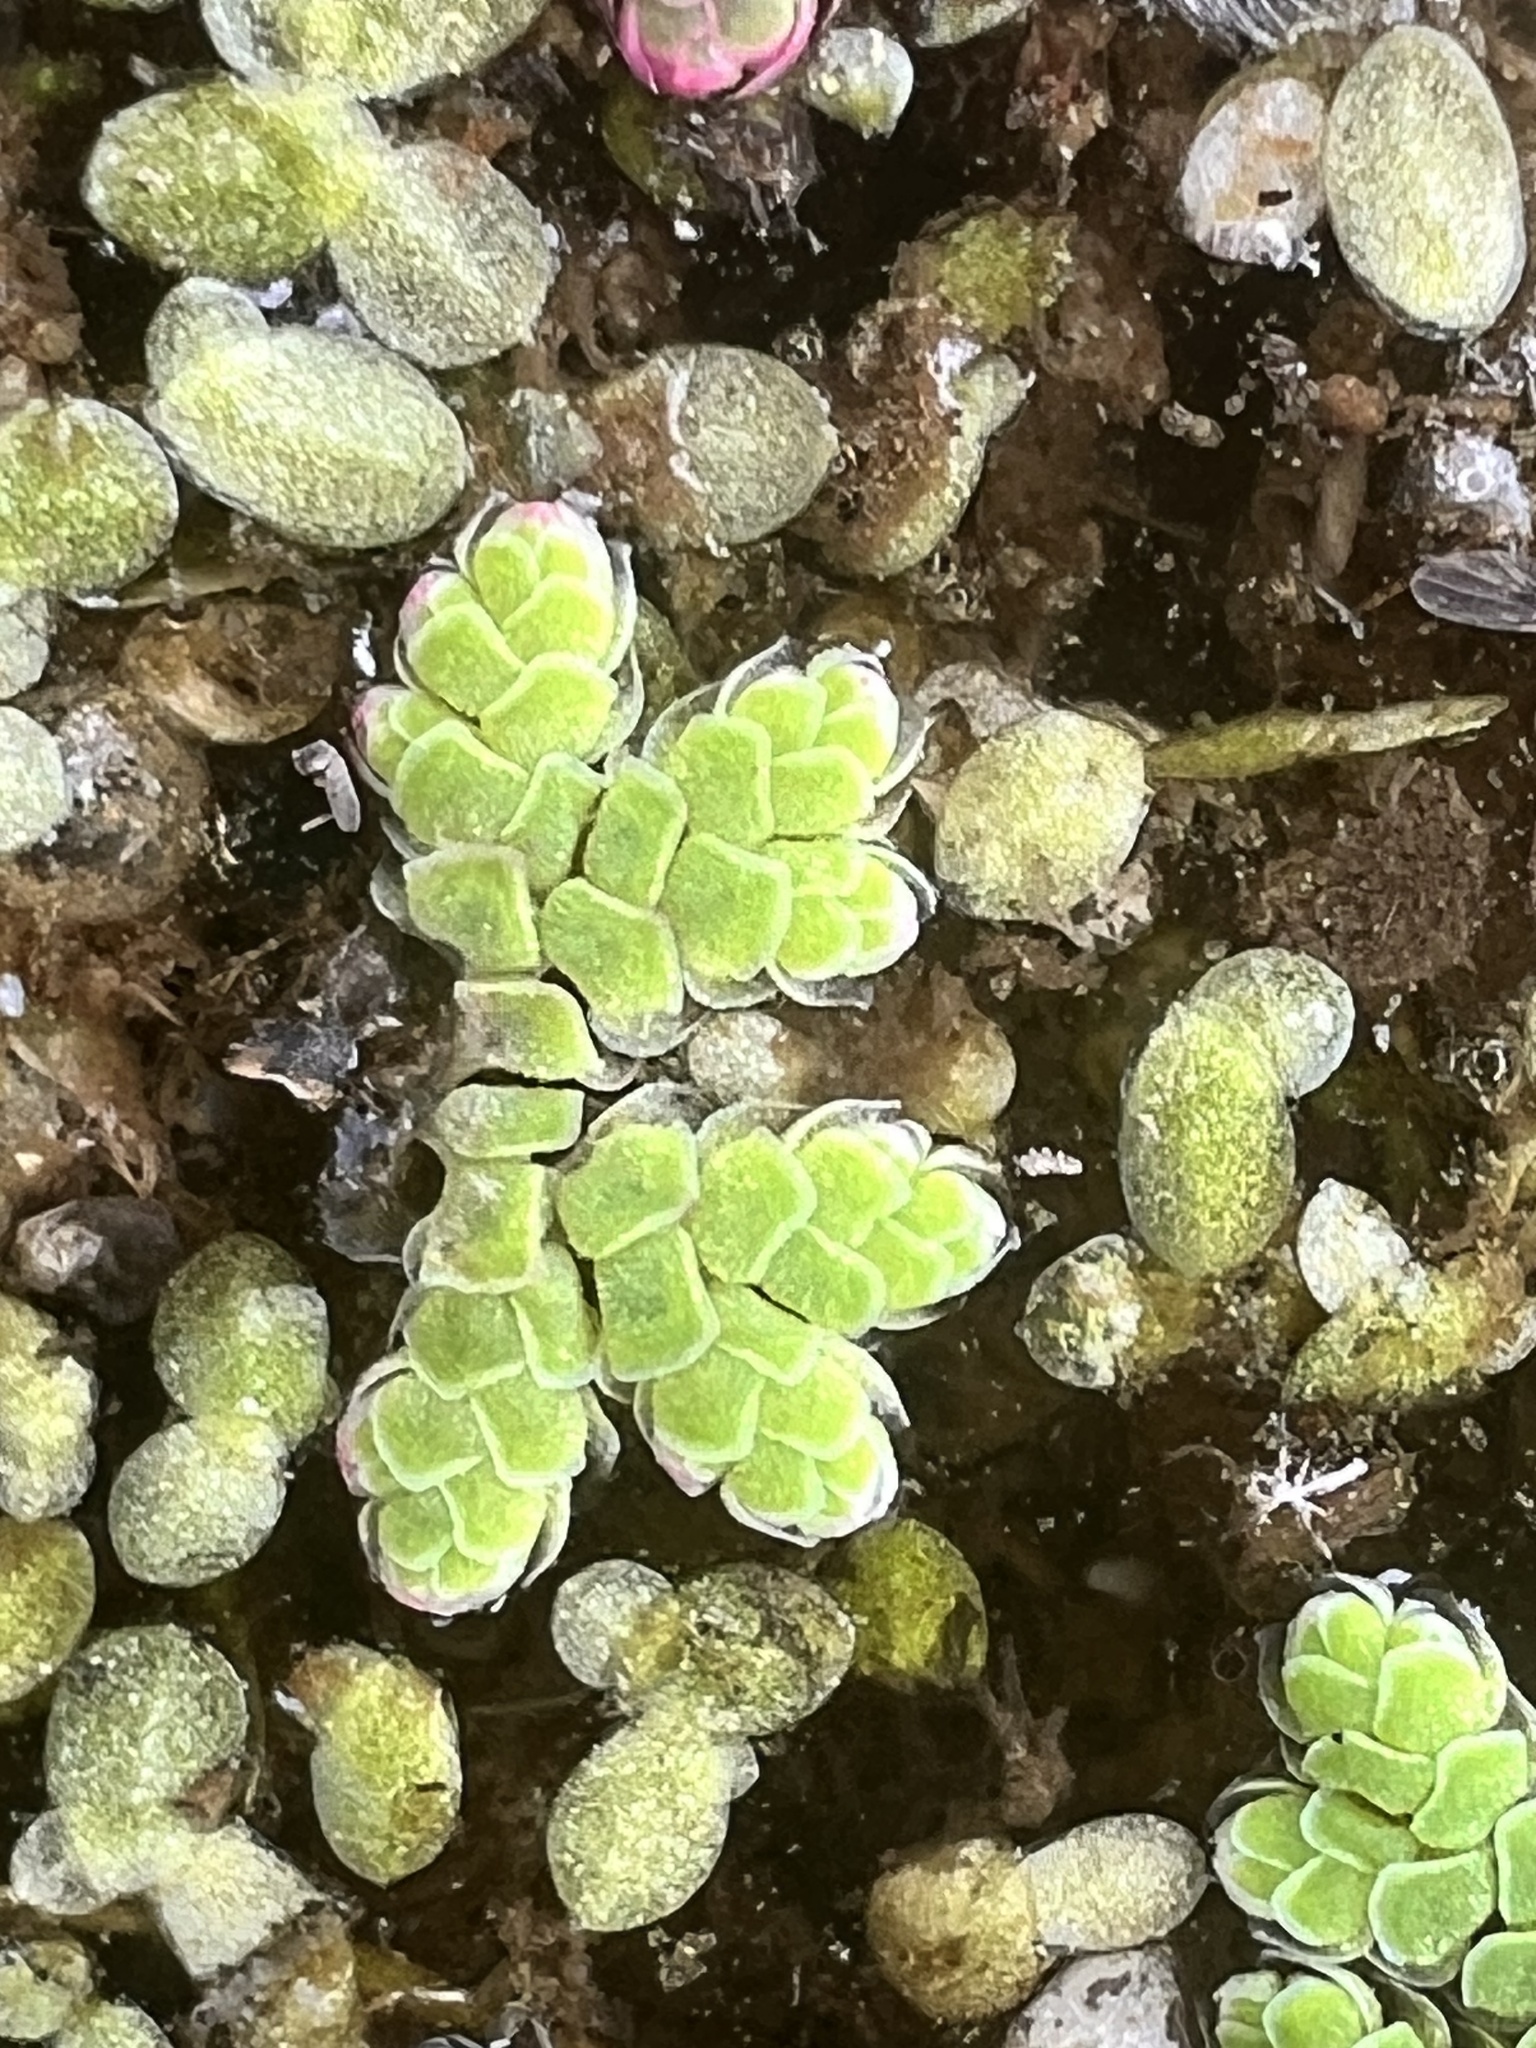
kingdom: Plantae
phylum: Tracheophyta
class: Polypodiopsida
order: Salviniales
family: Salviniaceae
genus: Azolla
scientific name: Azolla rubra
